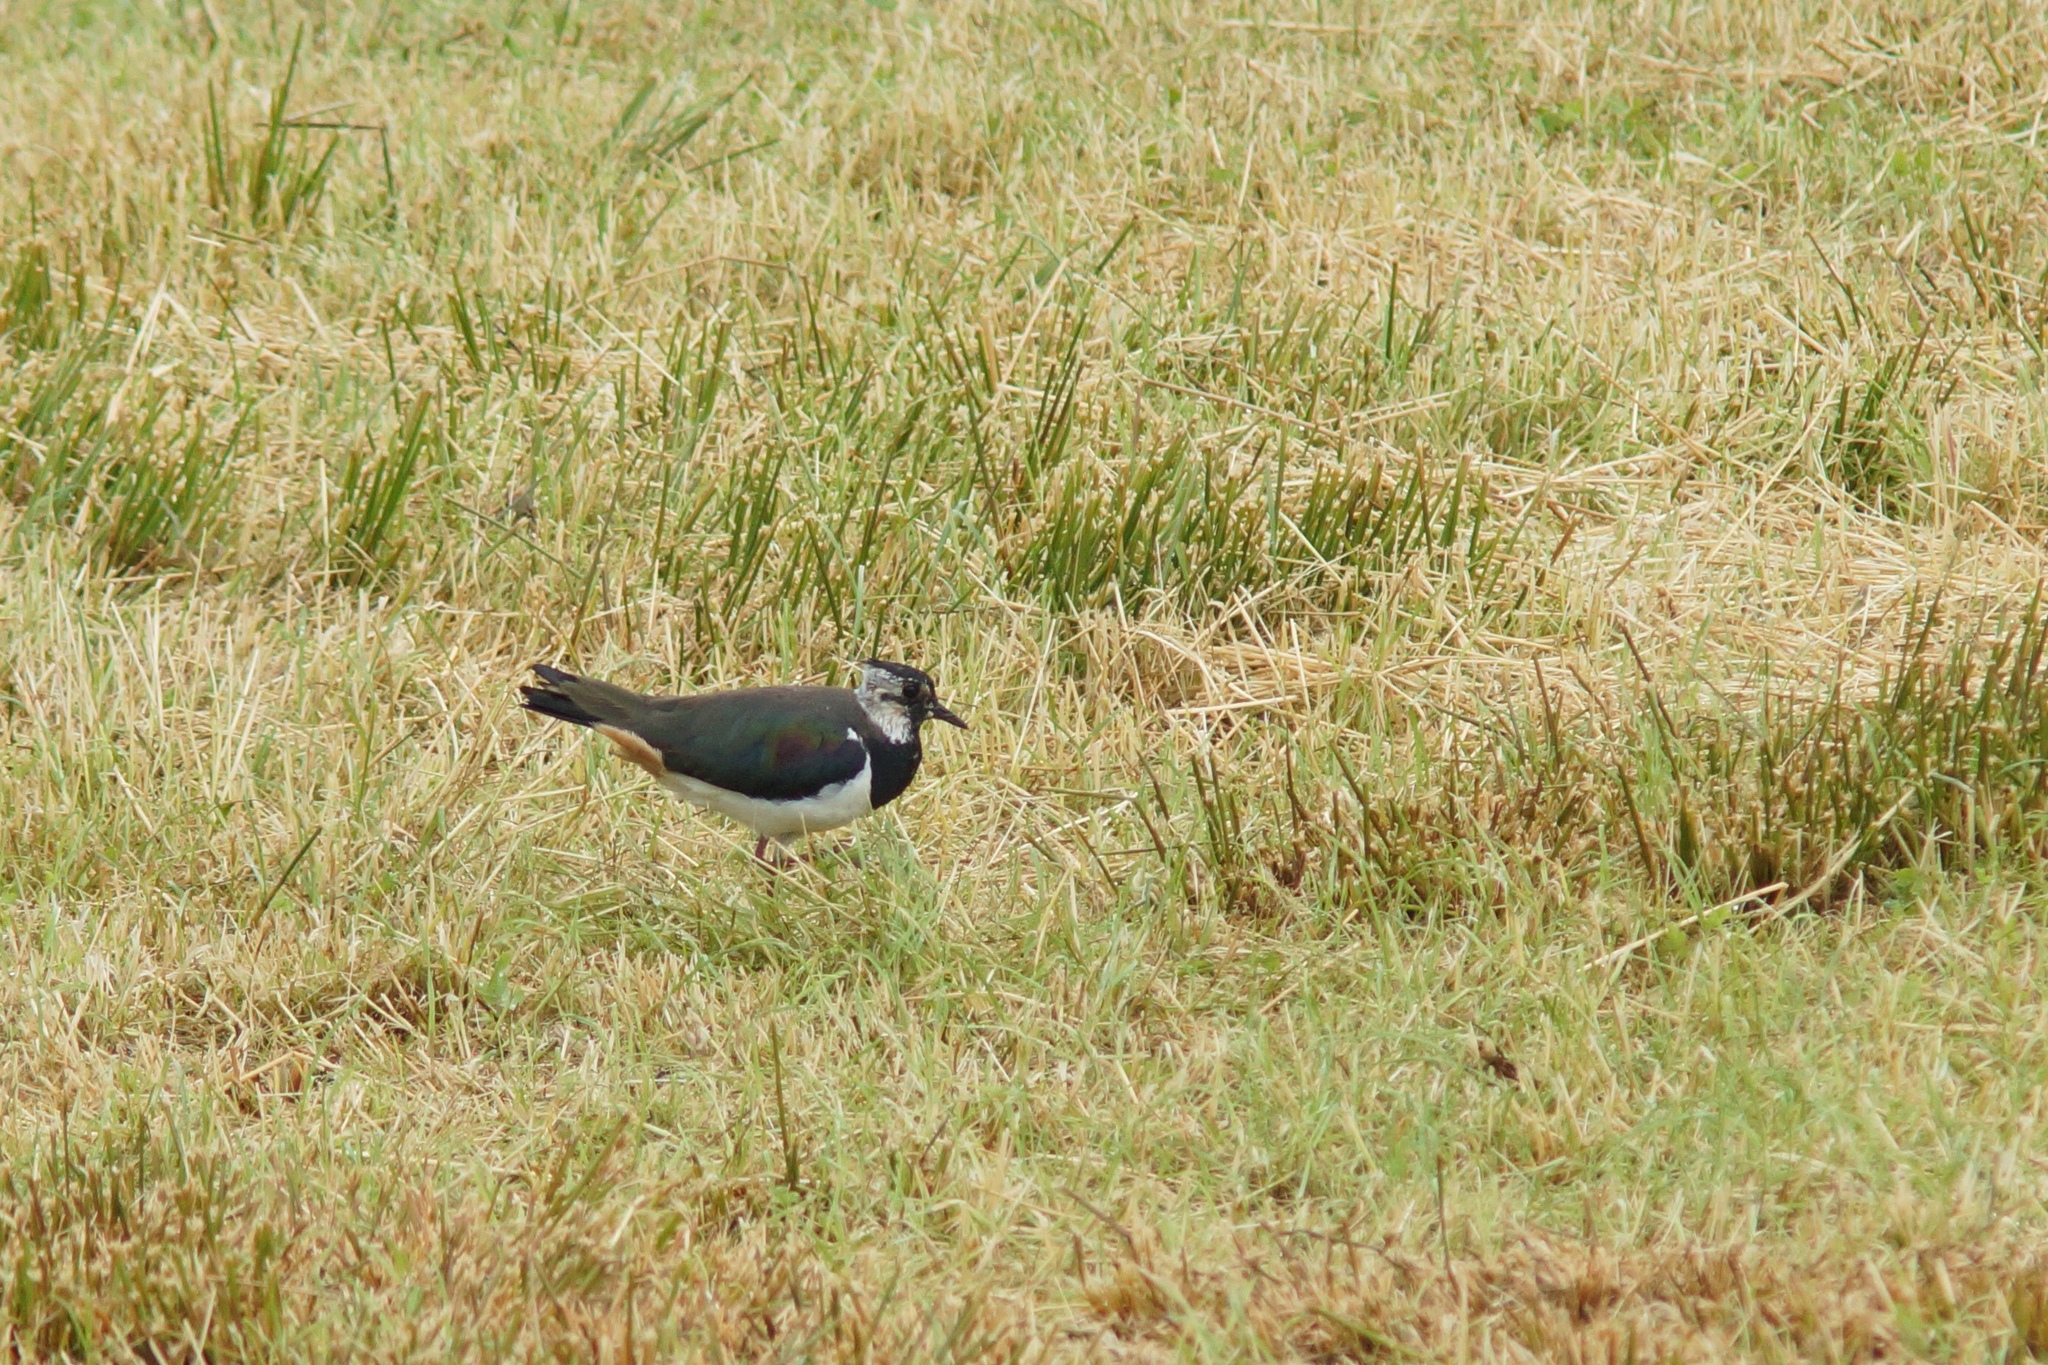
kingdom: Animalia
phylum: Chordata
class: Aves
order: Charadriiformes
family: Charadriidae
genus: Vanellus
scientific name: Vanellus vanellus
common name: Northern lapwing
